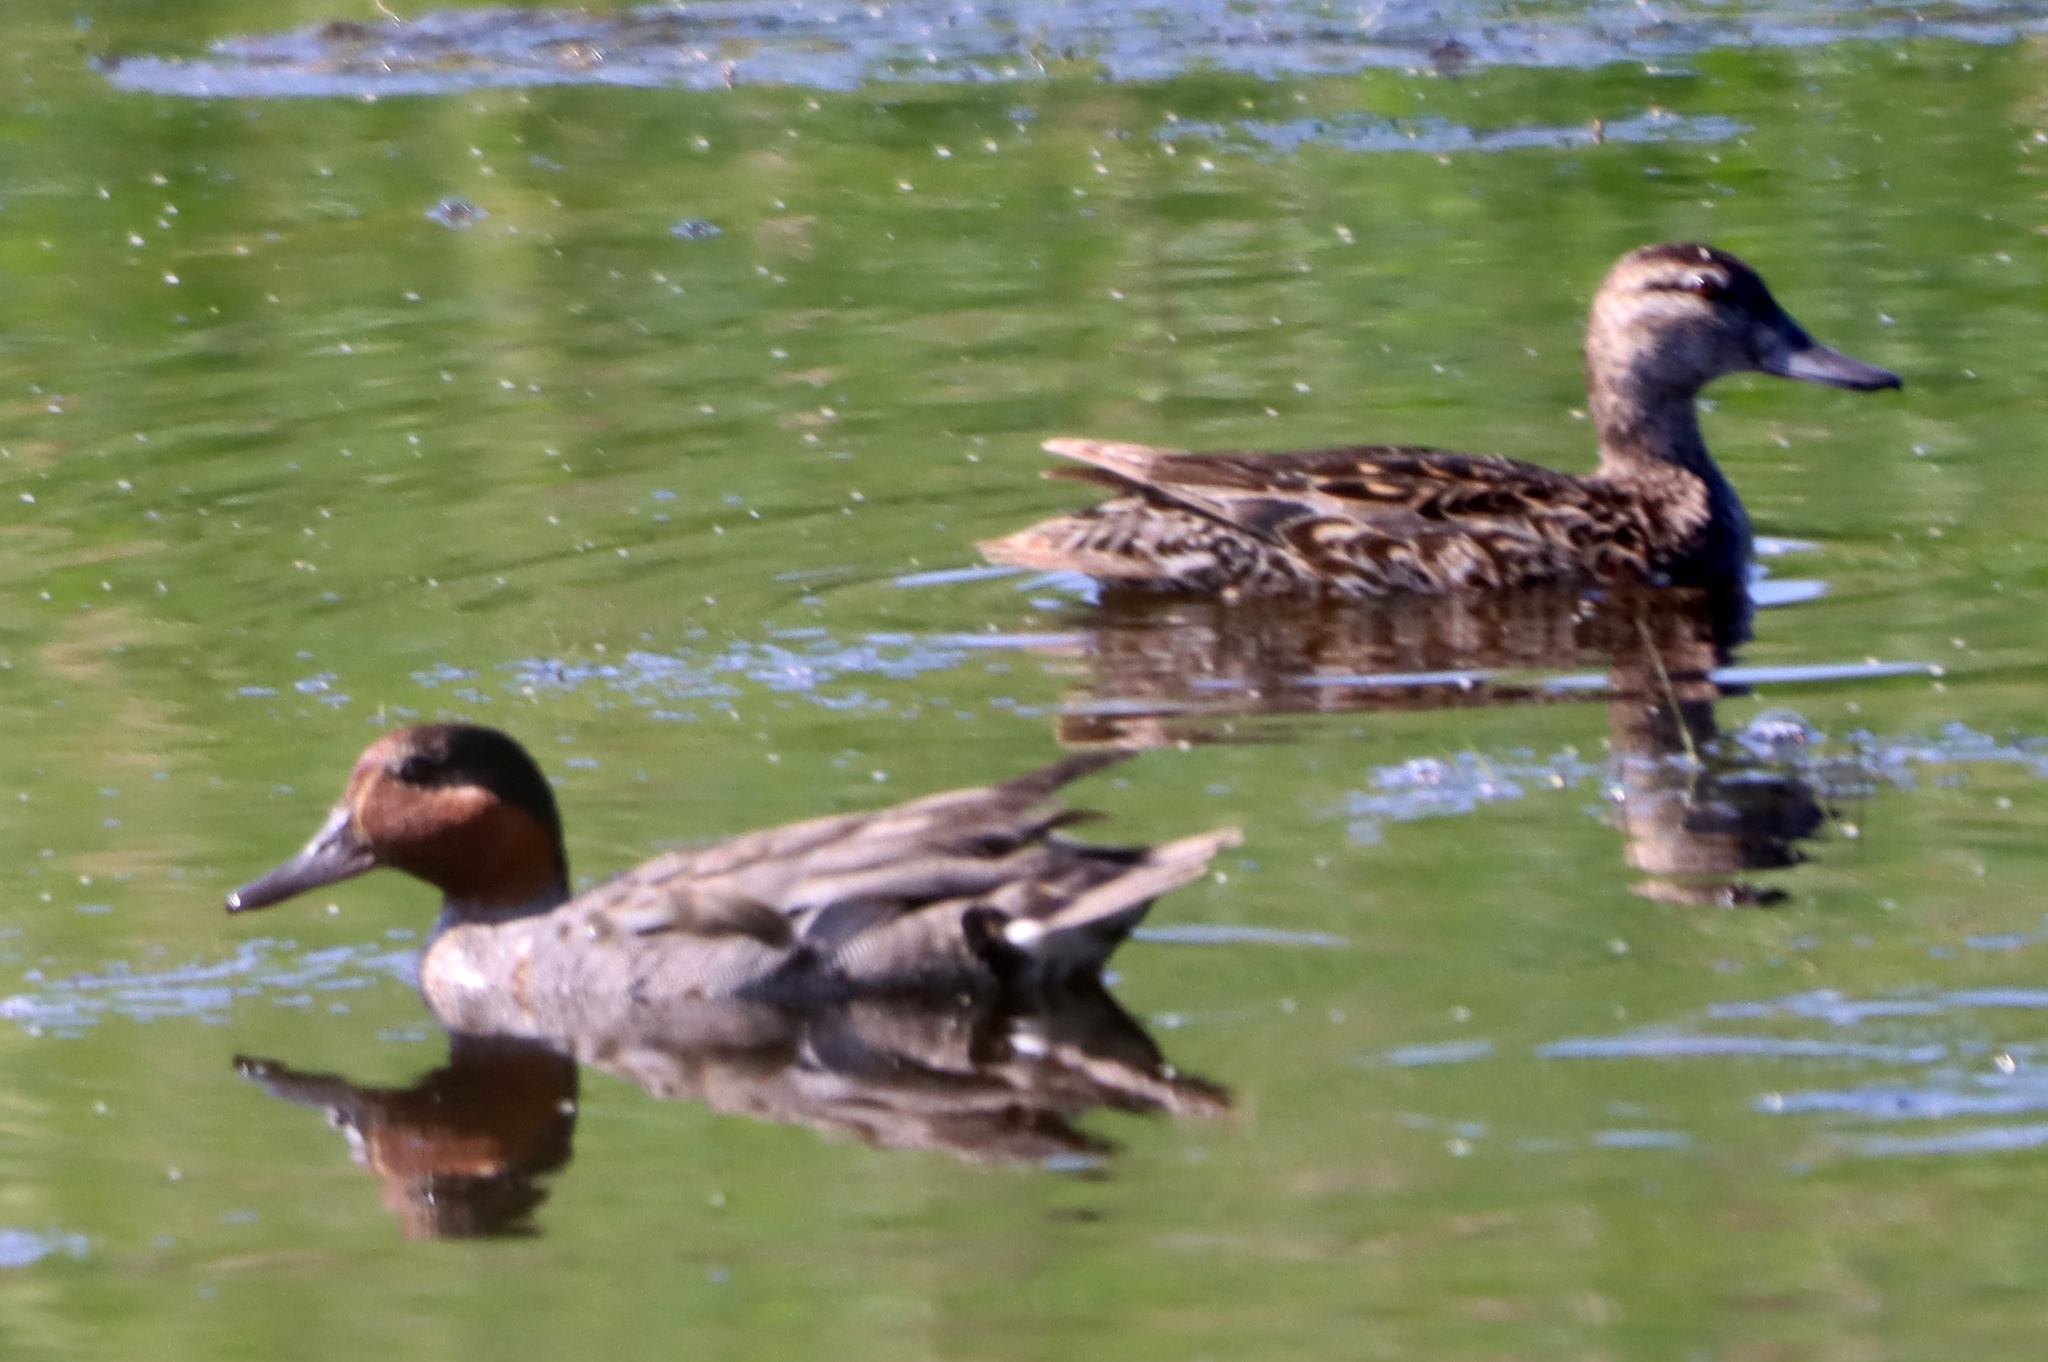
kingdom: Animalia
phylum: Chordata
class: Aves
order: Anseriformes
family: Anatidae
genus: Anas
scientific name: Anas crecca
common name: Eurasian teal
